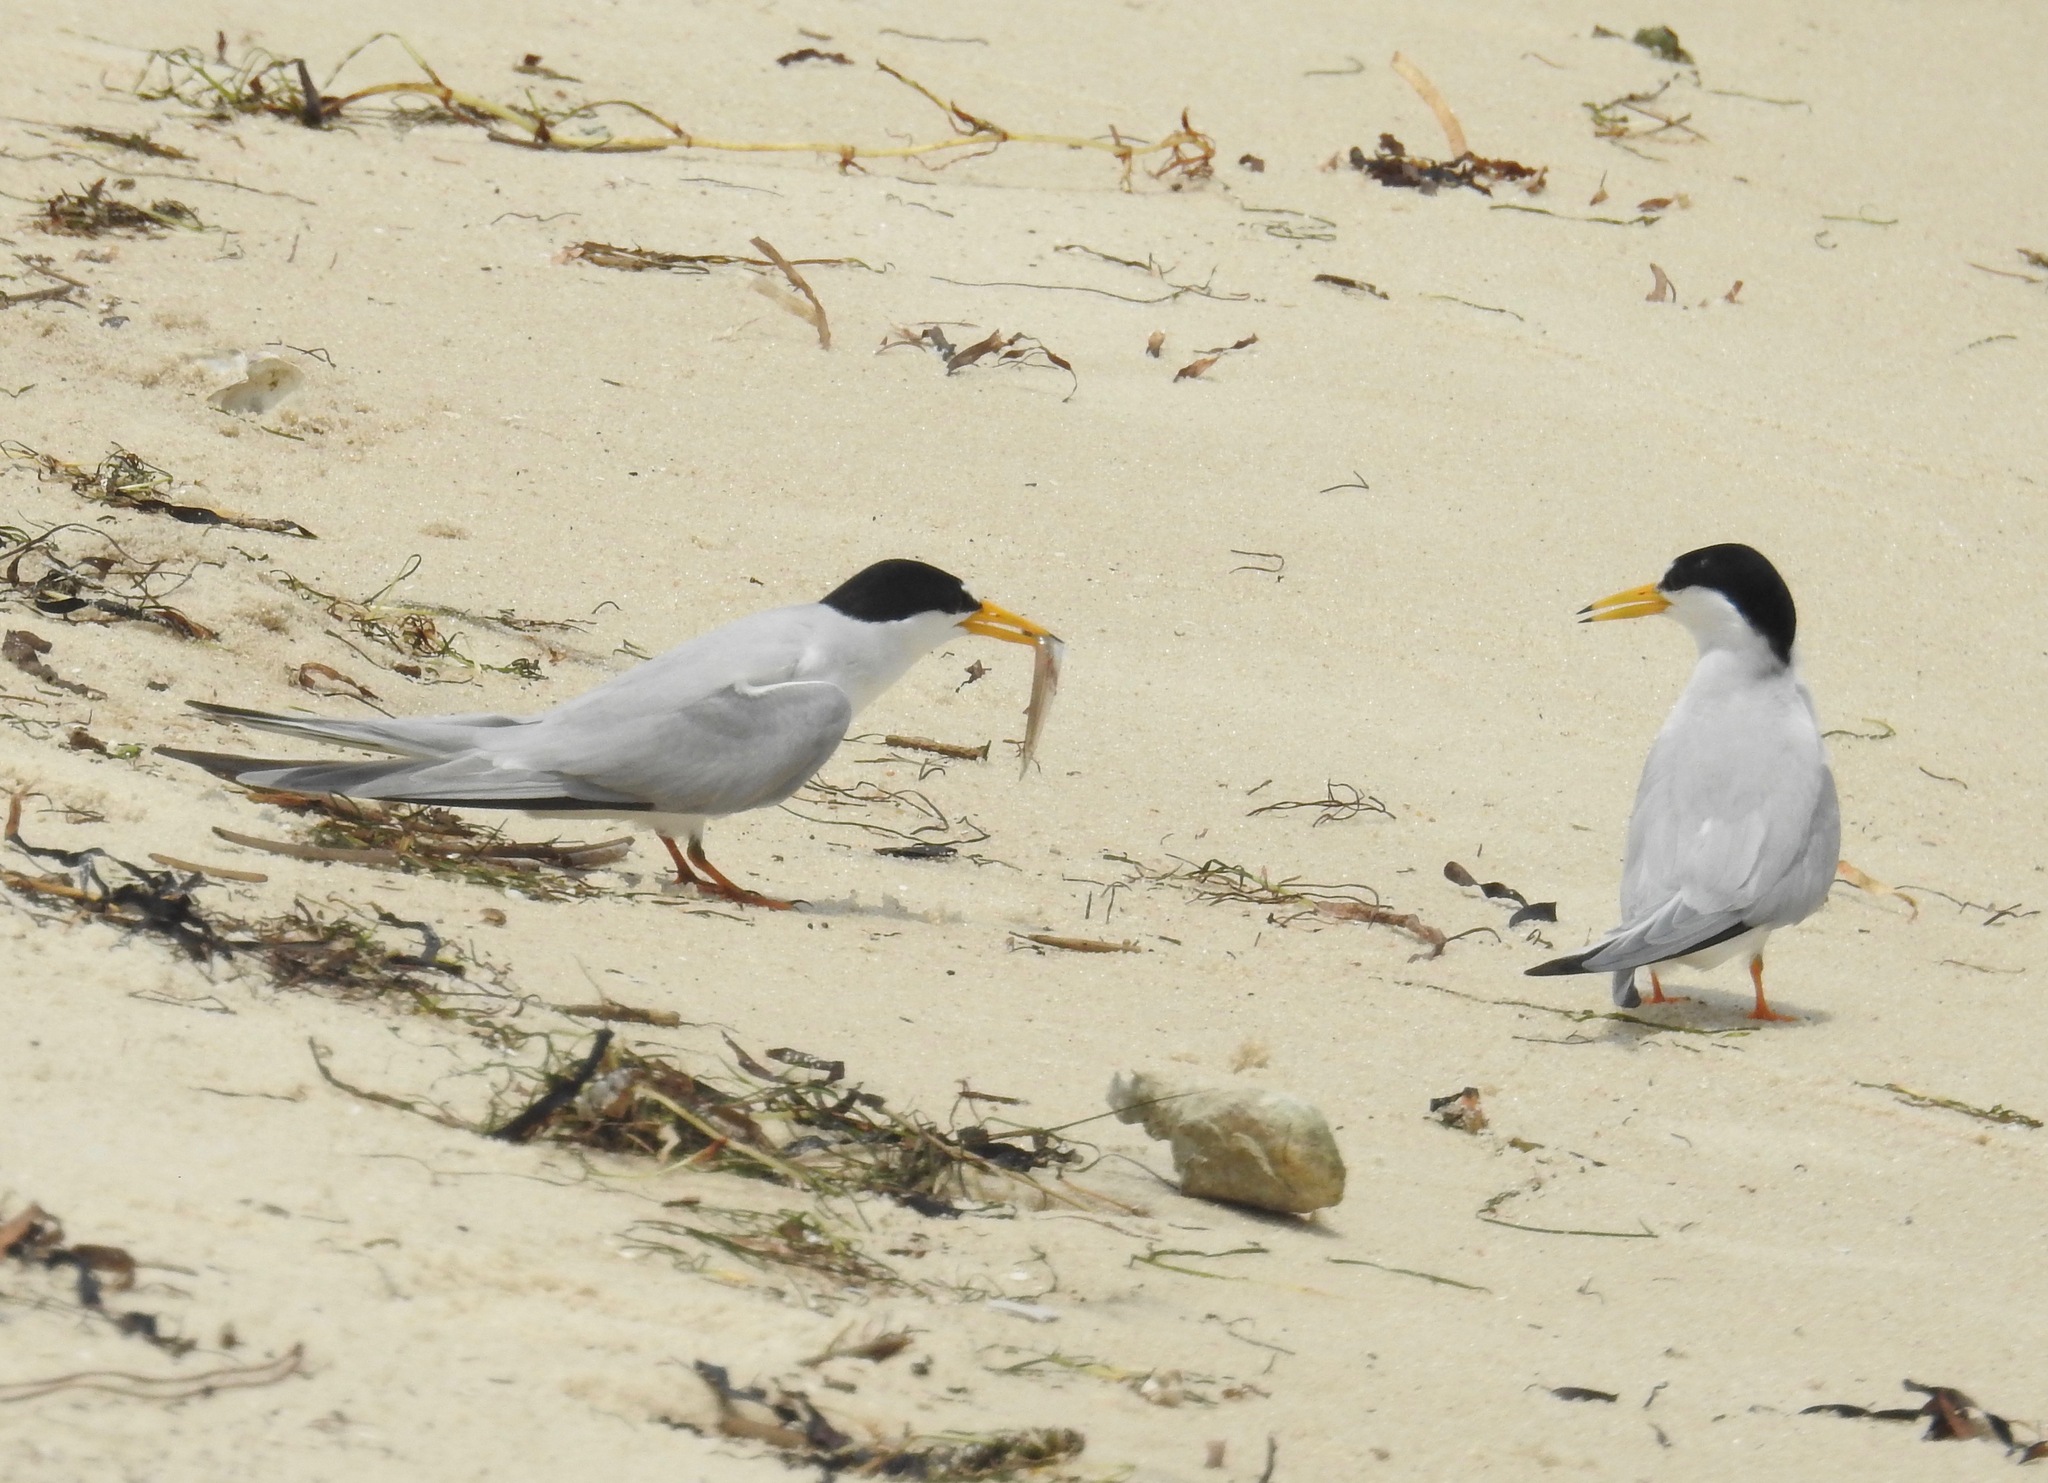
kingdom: Animalia
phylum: Chordata
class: Aves
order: Charadriiformes
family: Laridae
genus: Sternula
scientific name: Sternula antillarum
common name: Least tern
